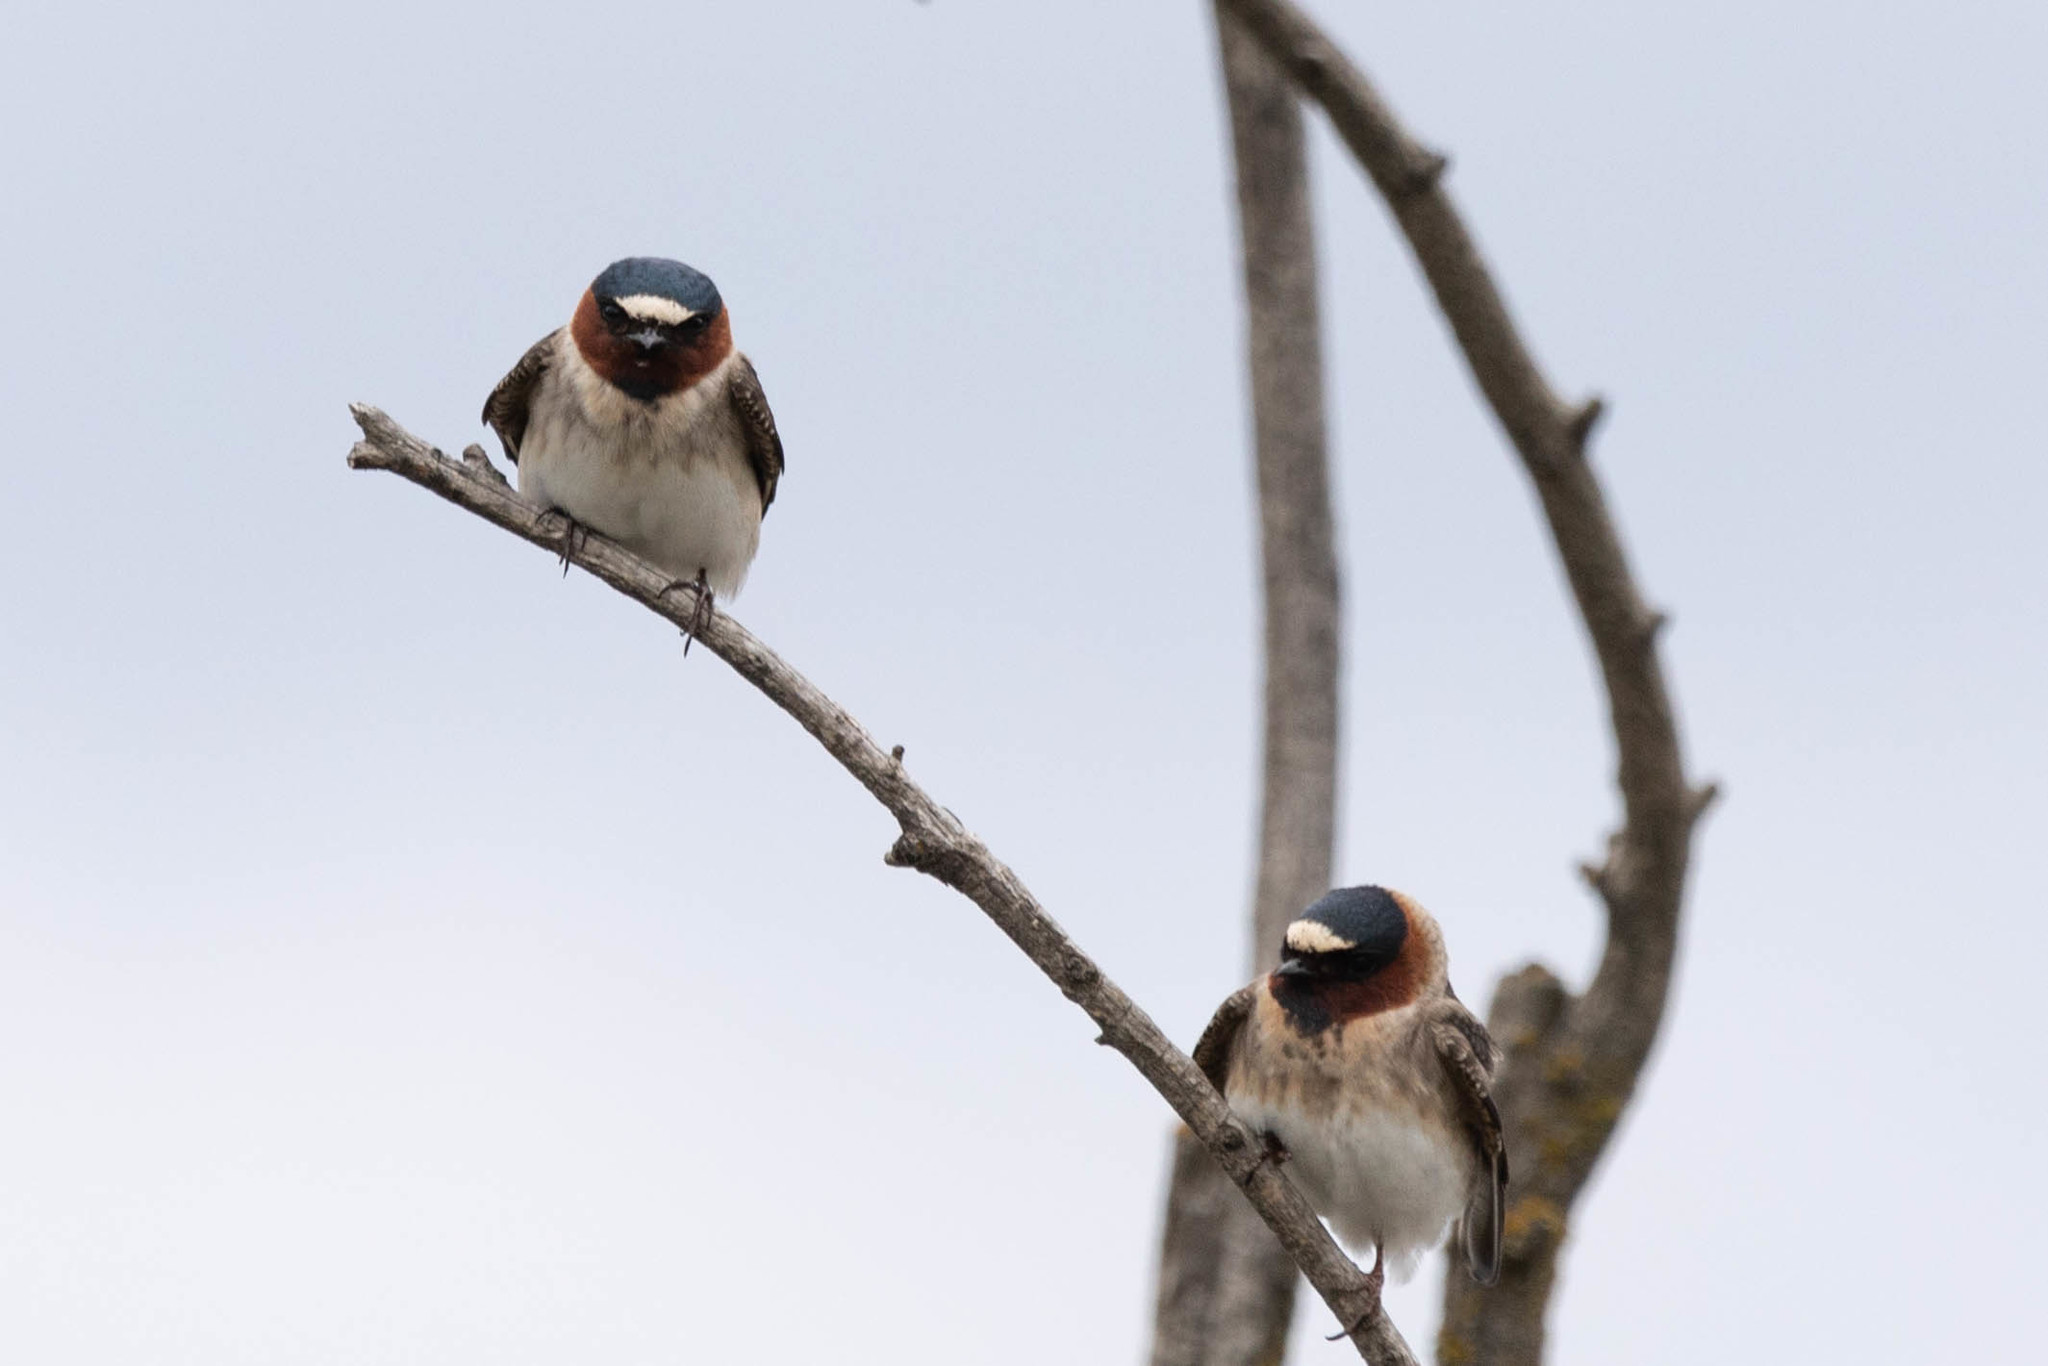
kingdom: Animalia
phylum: Chordata
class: Aves
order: Passeriformes
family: Hirundinidae
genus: Petrochelidon
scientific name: Petrochelidon pyrrhonota
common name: American cliff swallow
